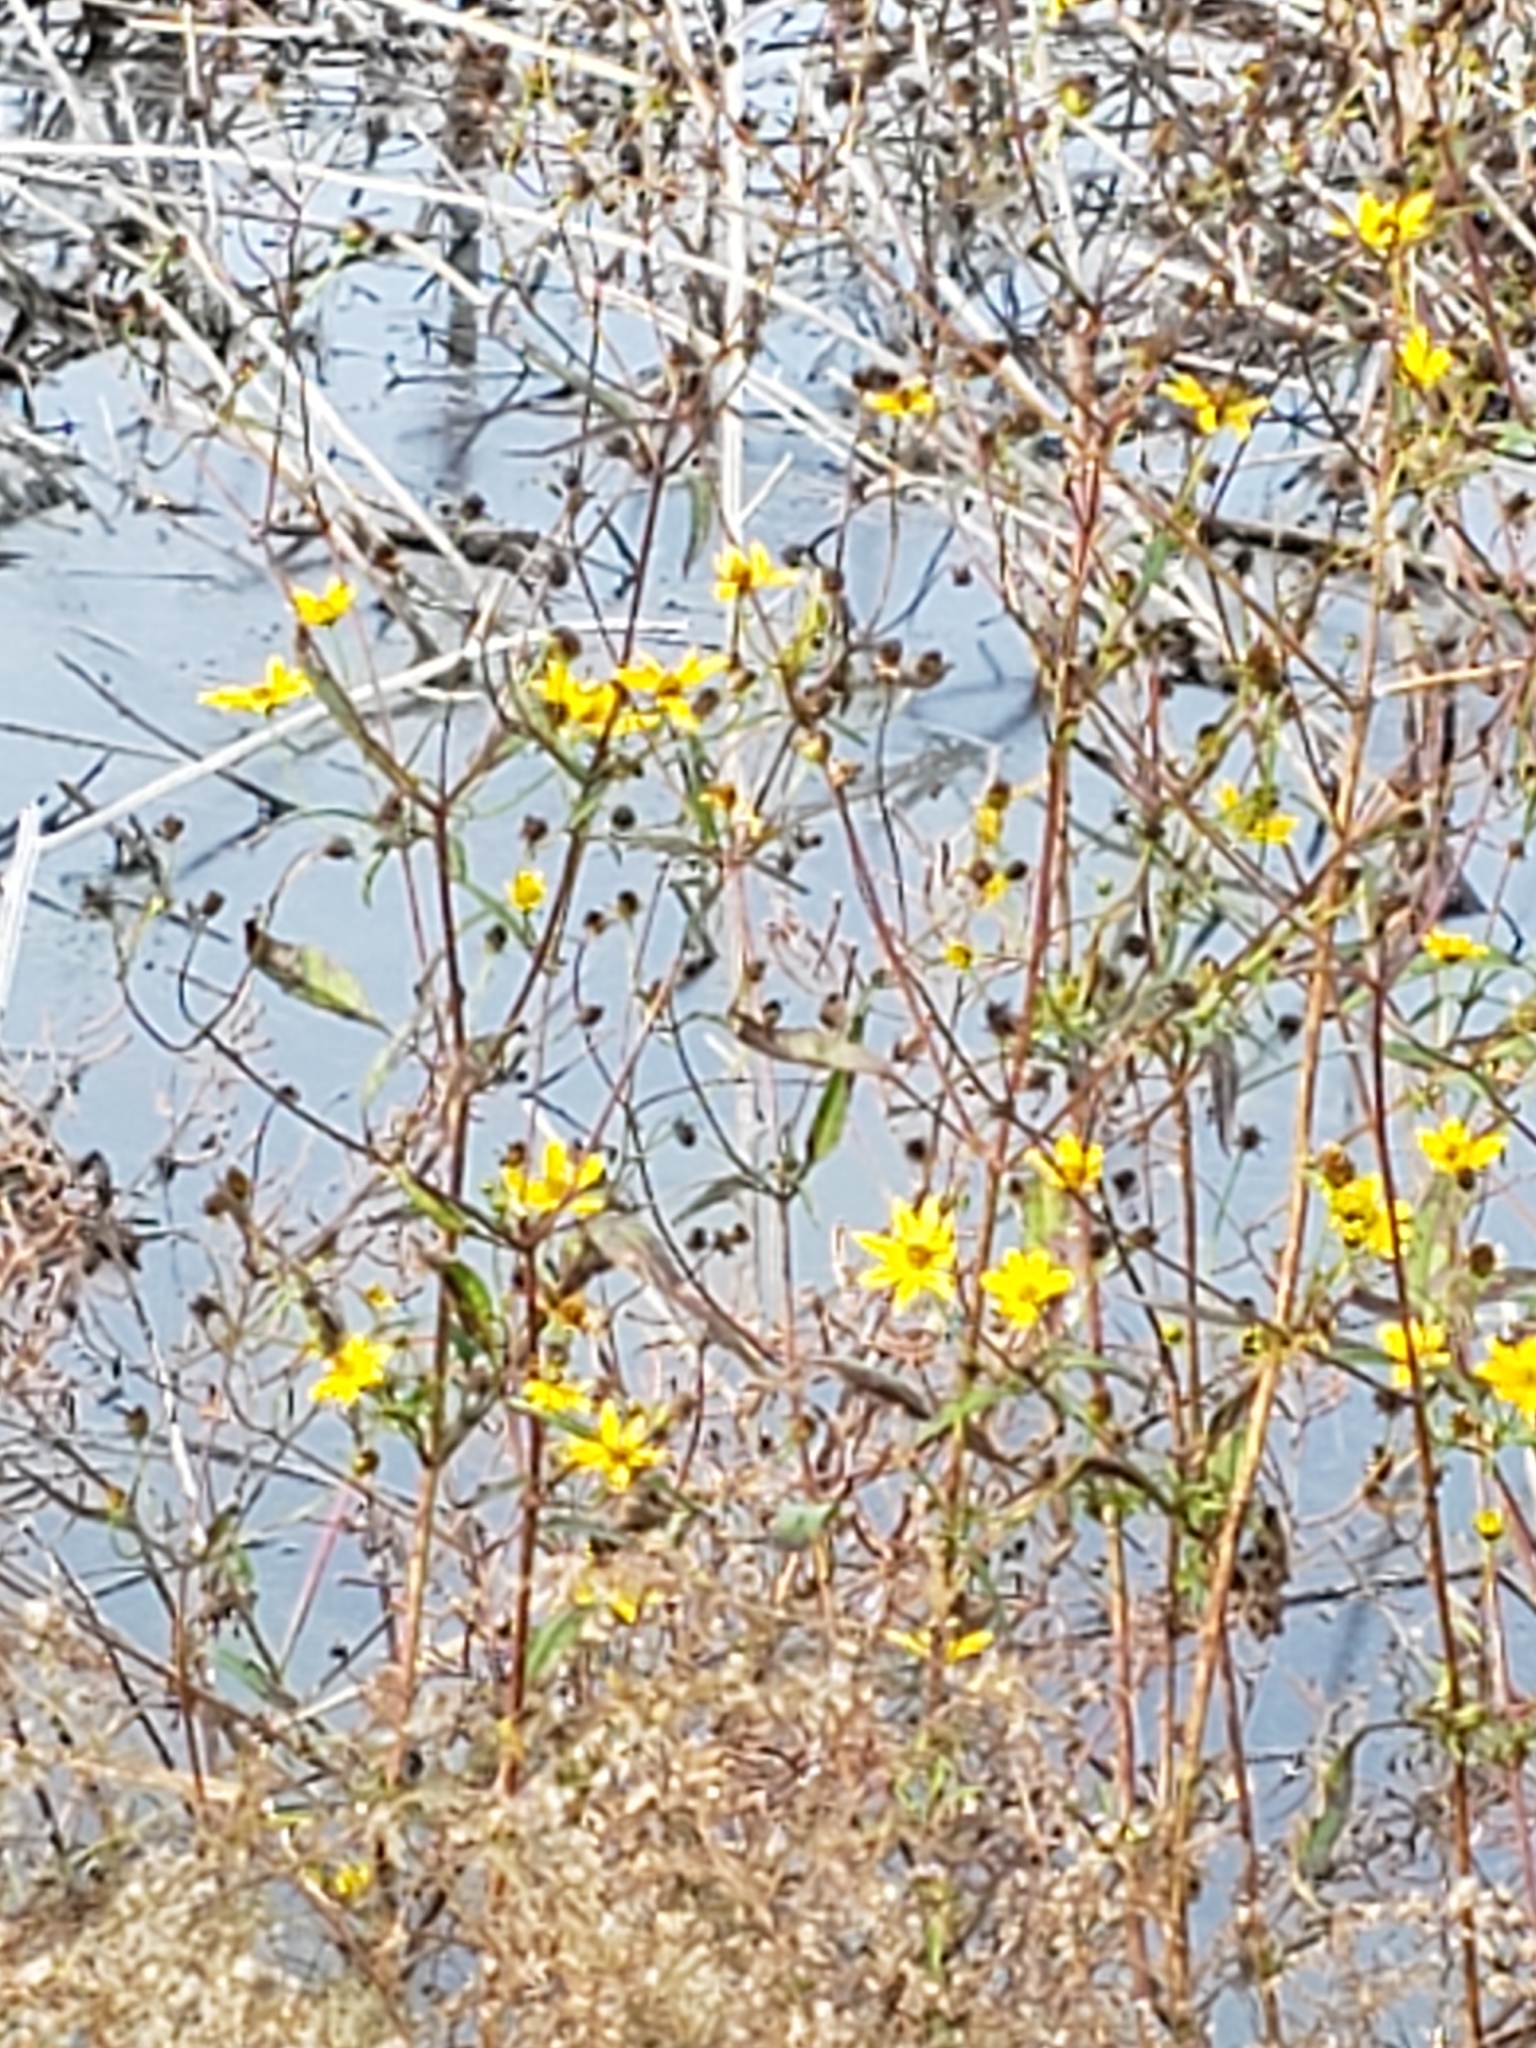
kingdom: Plantae
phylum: Tracheophyta
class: Magnoliopsida
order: Asterales
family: Asteraceae
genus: Bidens
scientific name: Bidens mitis
